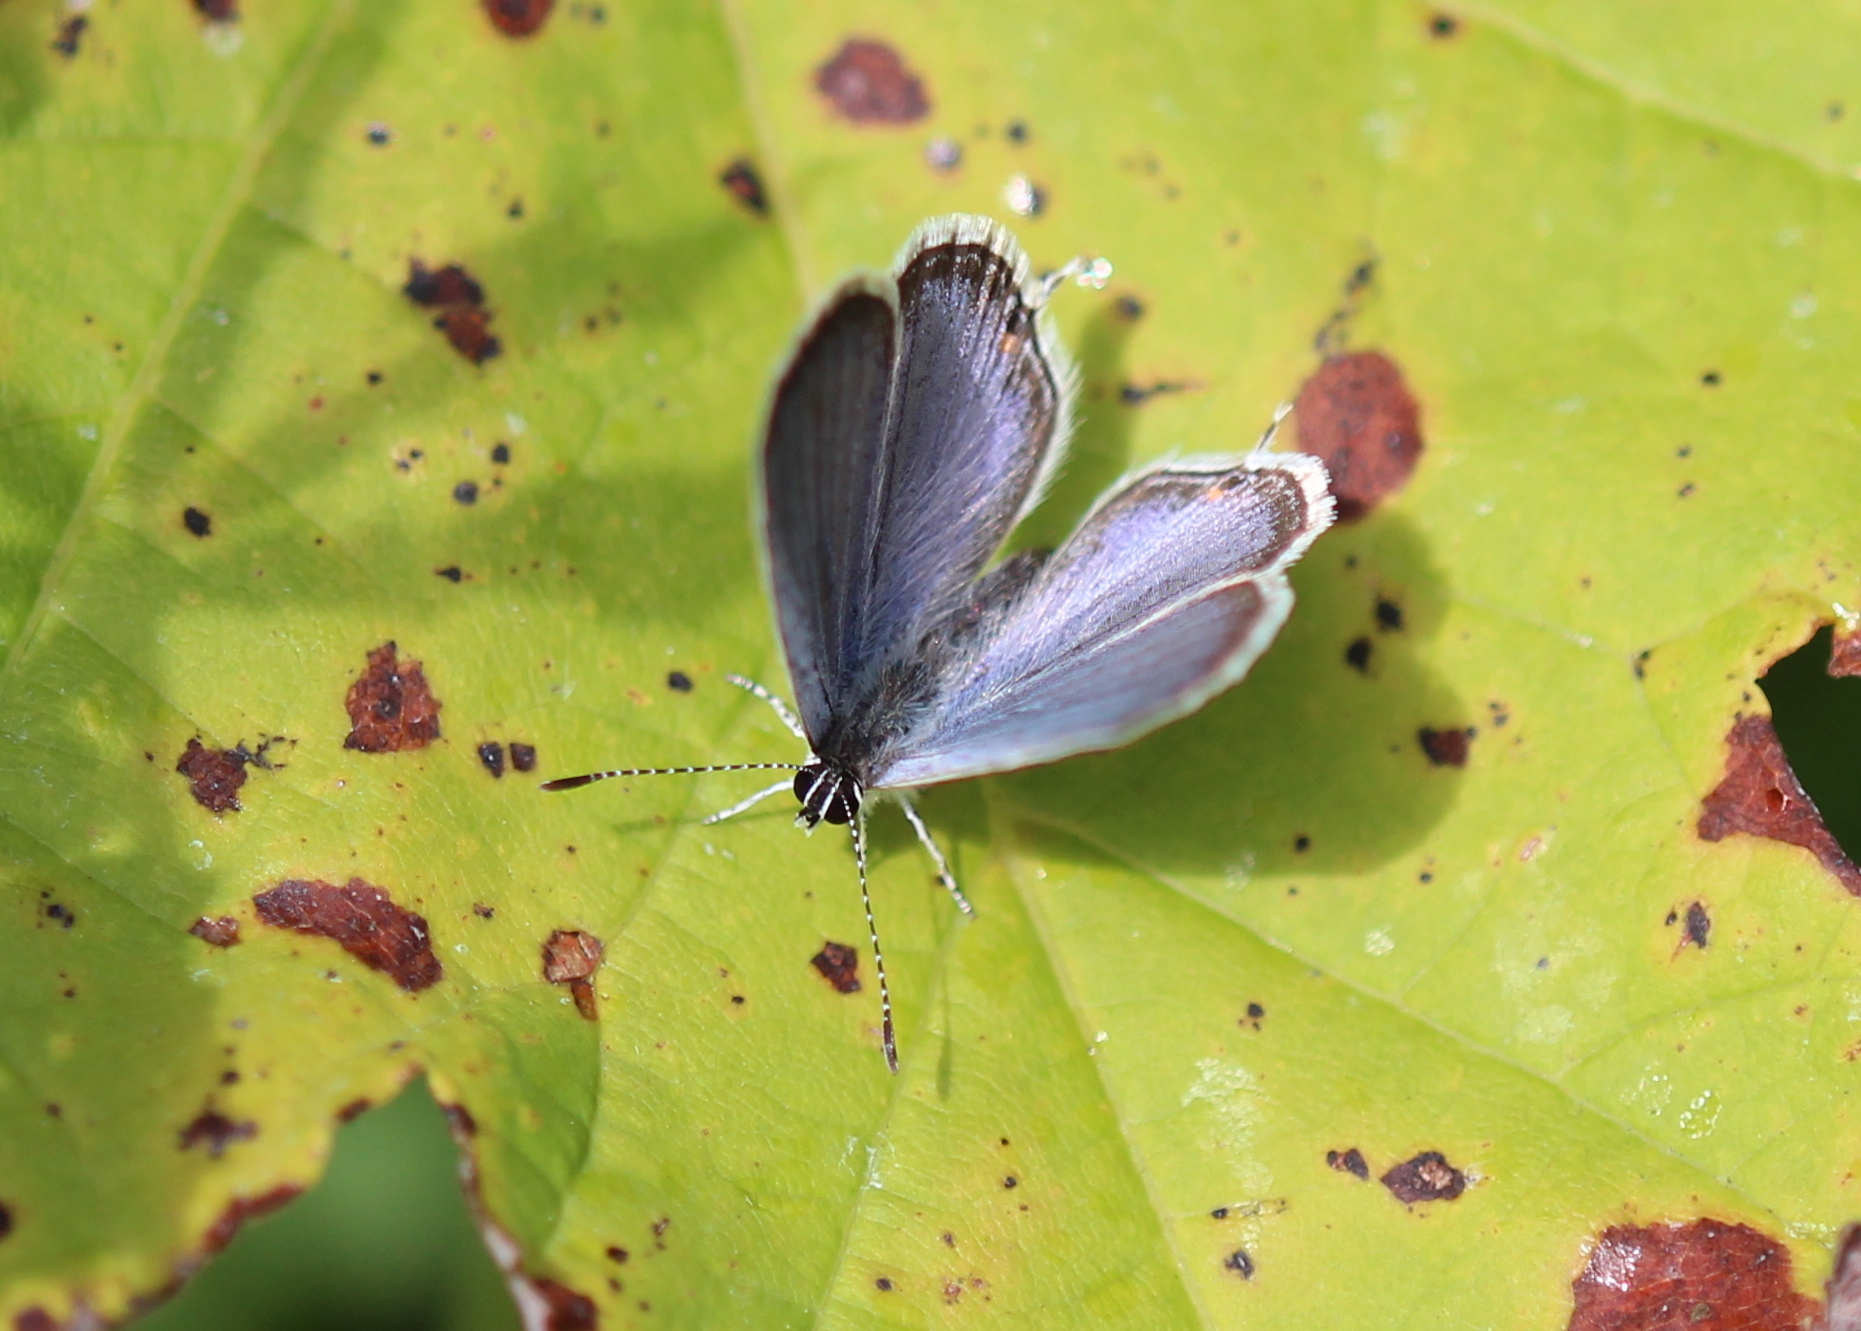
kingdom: Animalia
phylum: Arthropoda
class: Insecta
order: Lepidoptera
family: Lycaenidae
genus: Elkalyce
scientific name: Elkalyce comyntas
